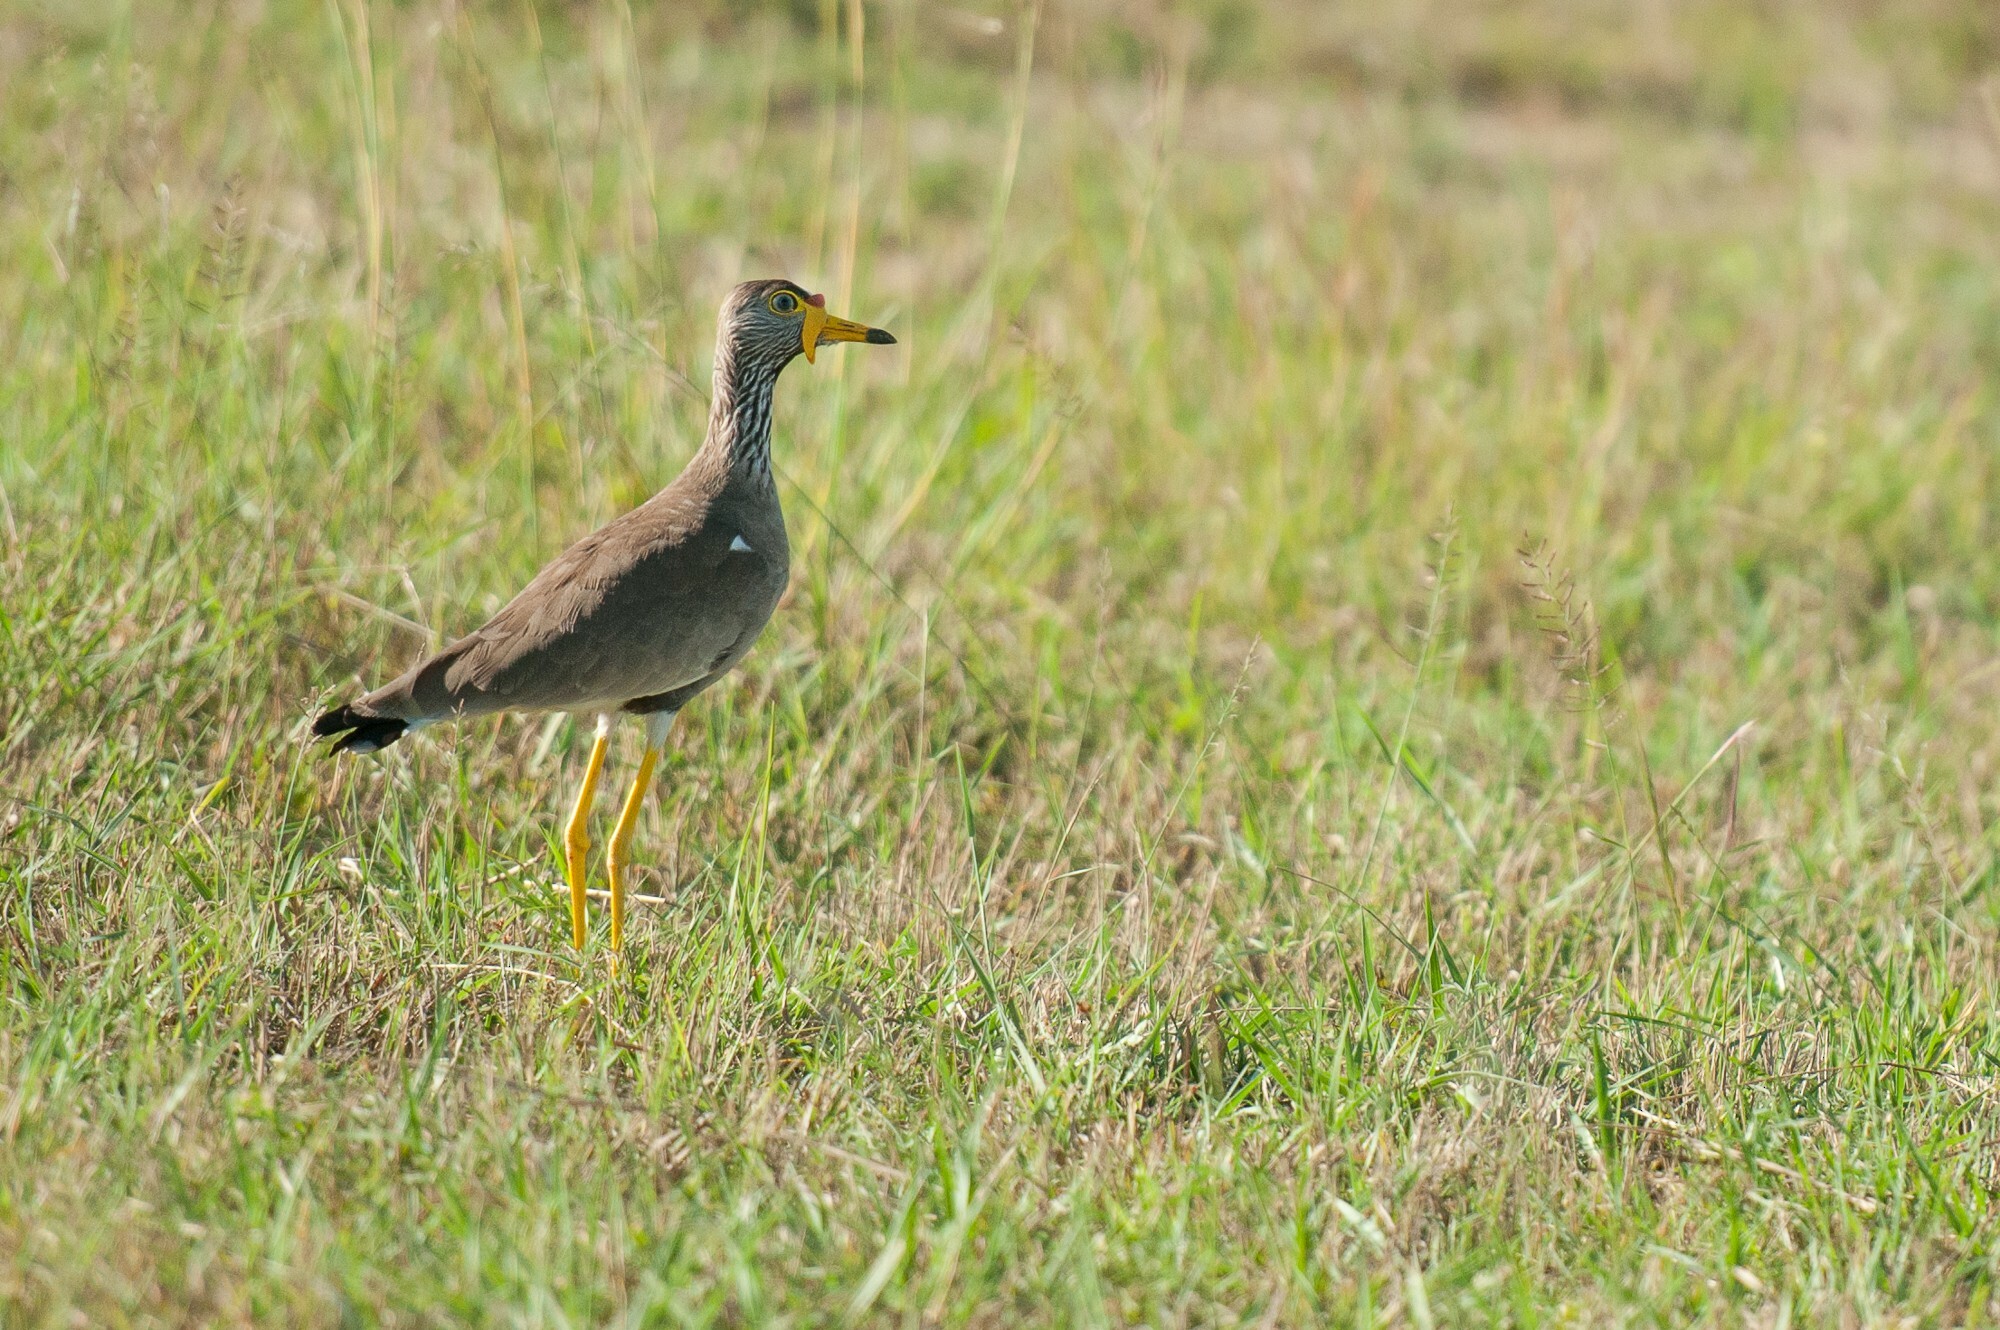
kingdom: Animalia
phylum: Chordata
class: Aves
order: Charadriiformes
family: Charadriidae
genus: Vanellus
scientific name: Vanellus senegallus
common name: African wattled lapwing
